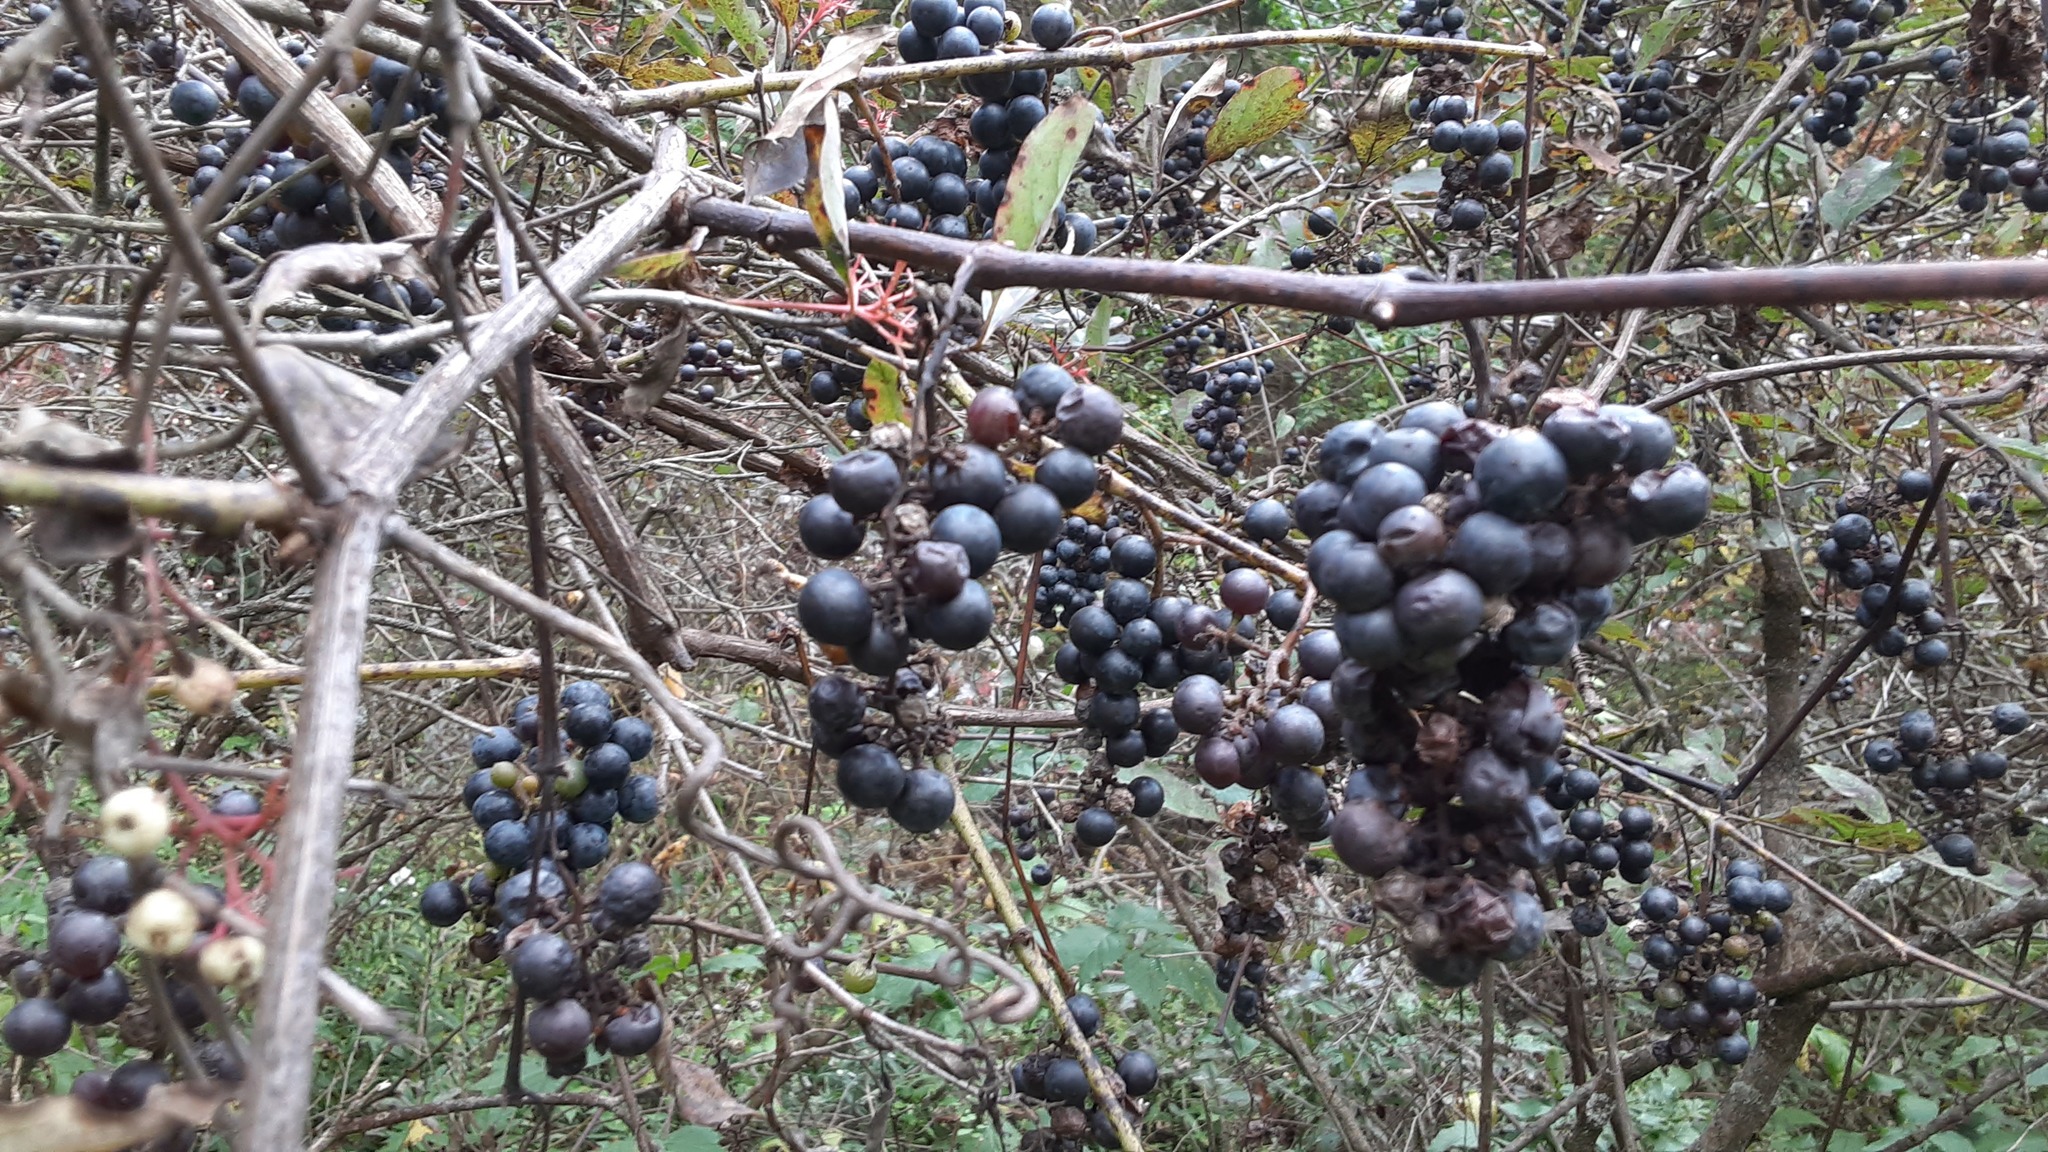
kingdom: Plantae
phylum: Tracheophyta
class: Magnoliopsida
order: Vitales
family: Vitaceae
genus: Vitis
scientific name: Vitis riparia
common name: Frost grape
